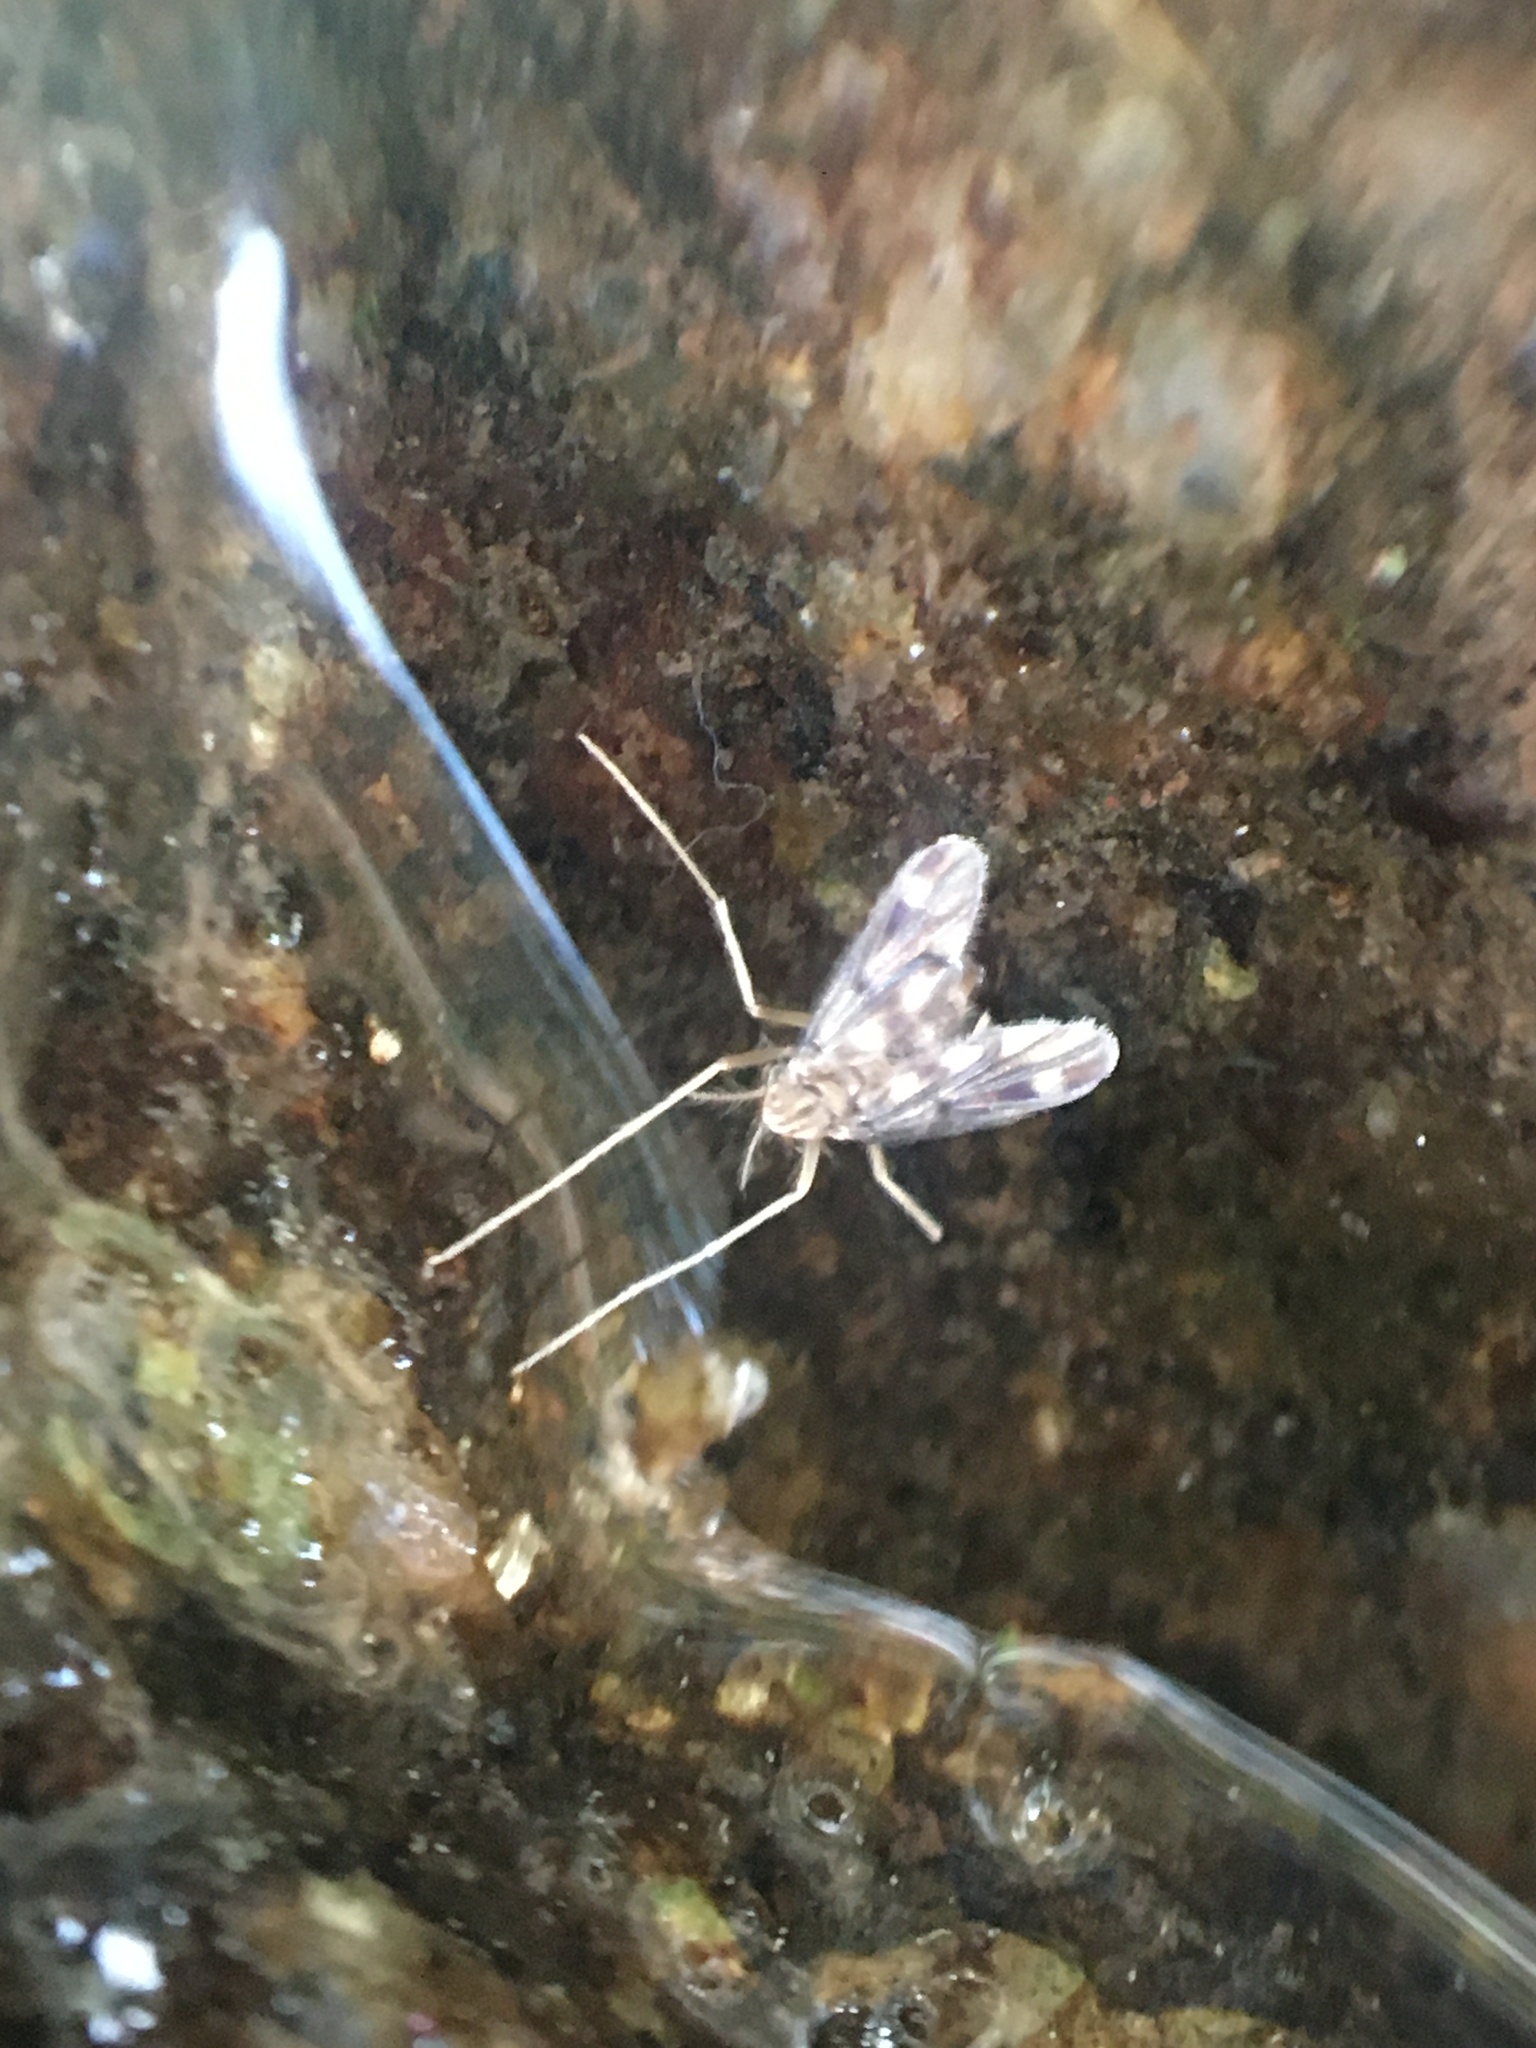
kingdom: Animalia
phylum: Arthropoda
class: Insecta
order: Diptera
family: Chironomidae
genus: Zavrelimyia
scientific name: Zavrelimyia
